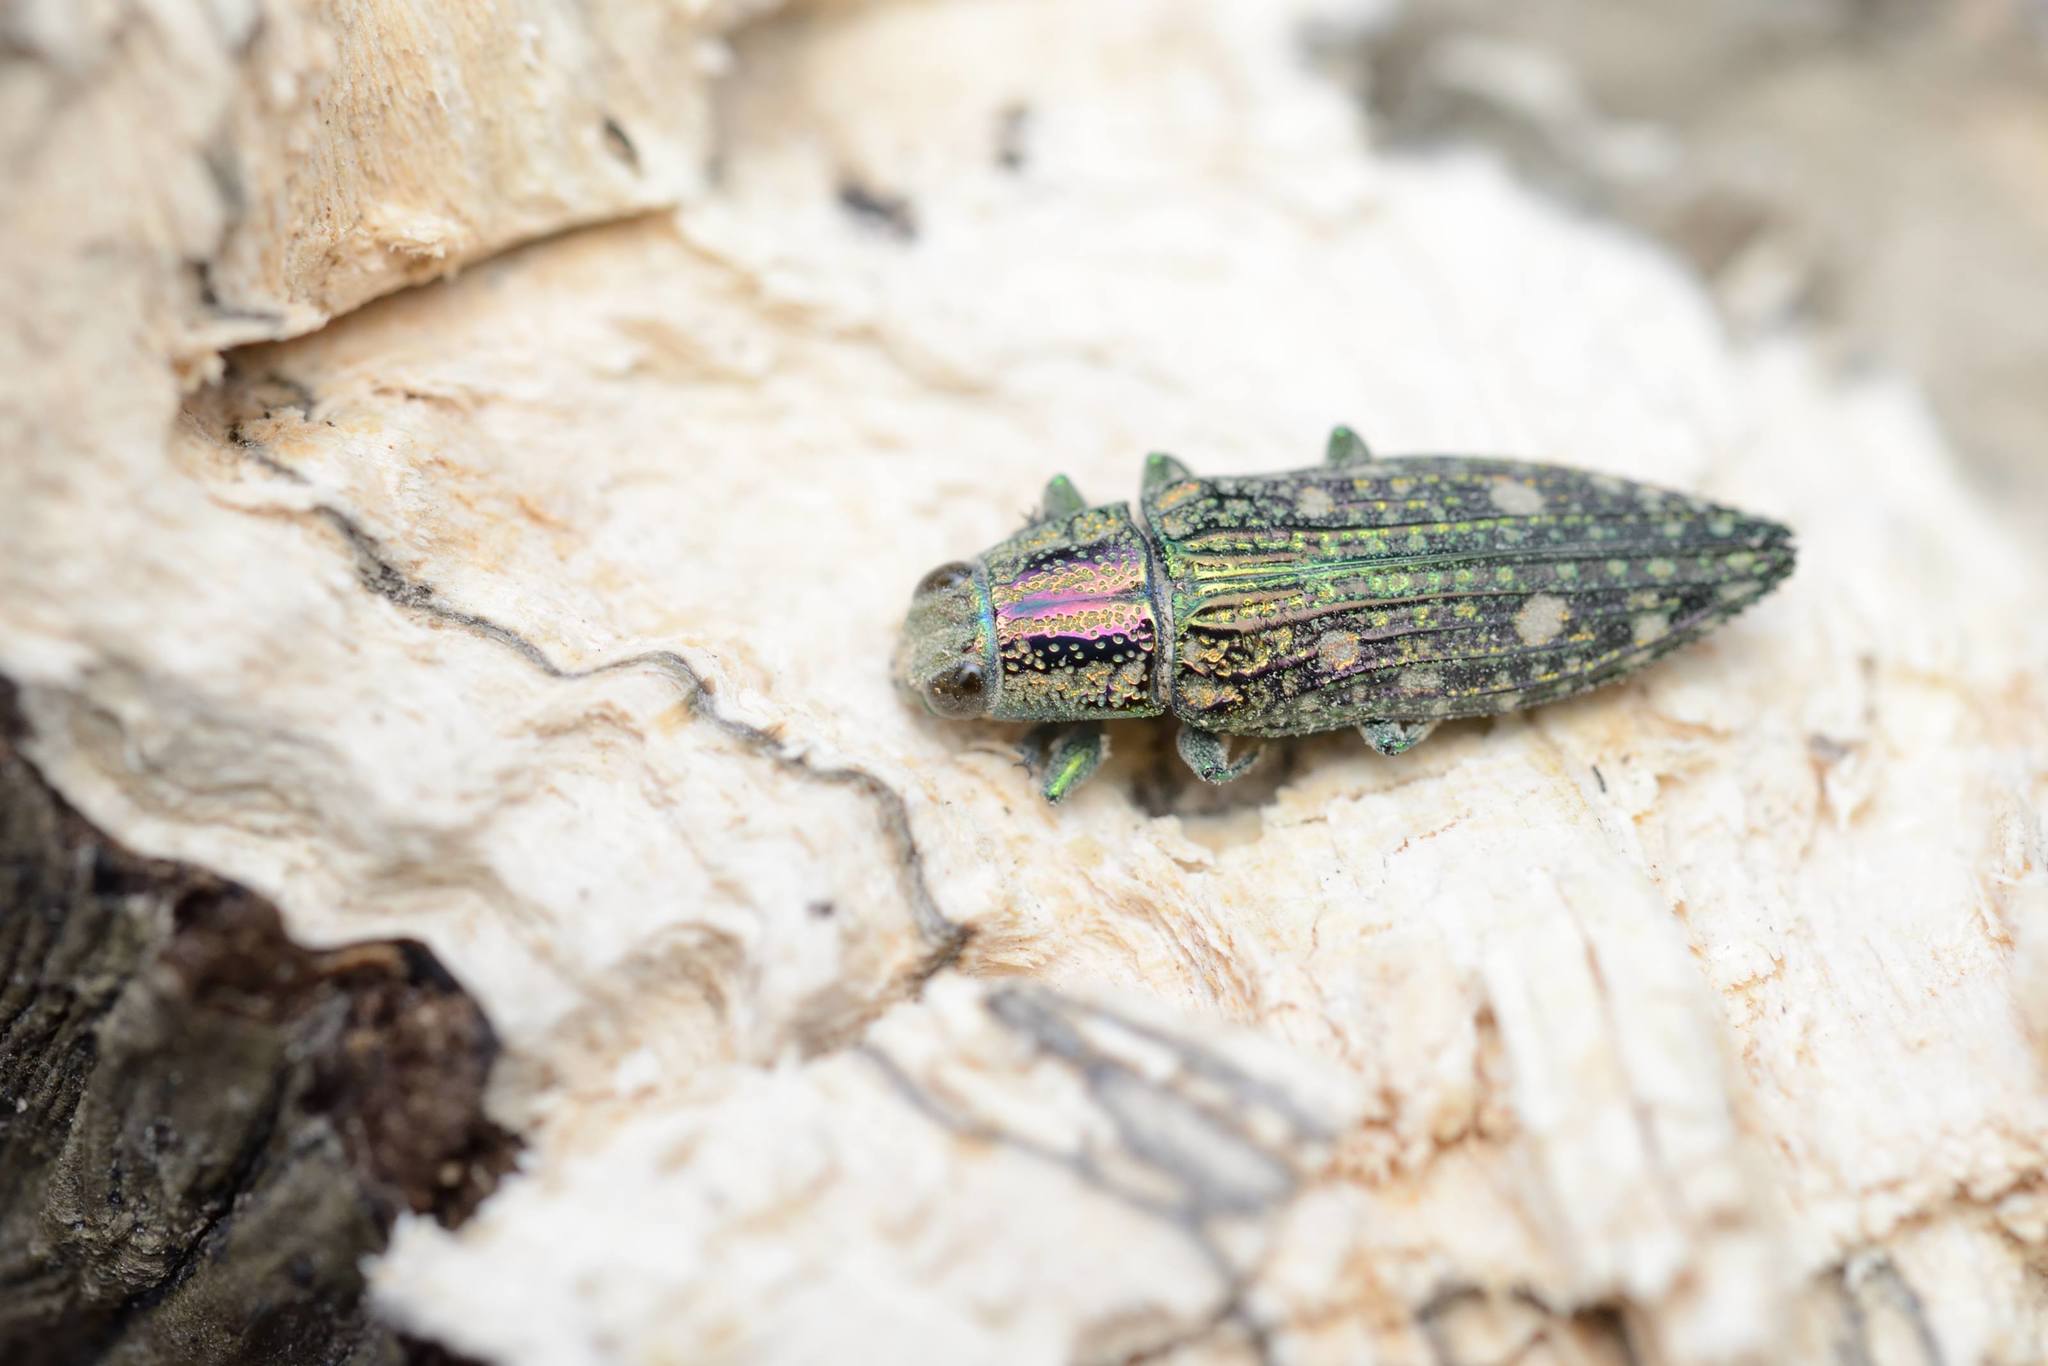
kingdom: Animalia
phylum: Arthropoda
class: Insecta
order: Coleoptera
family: Buprestidae
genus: Nipponobuprestis
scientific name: Nipponobuprestis amabilis
